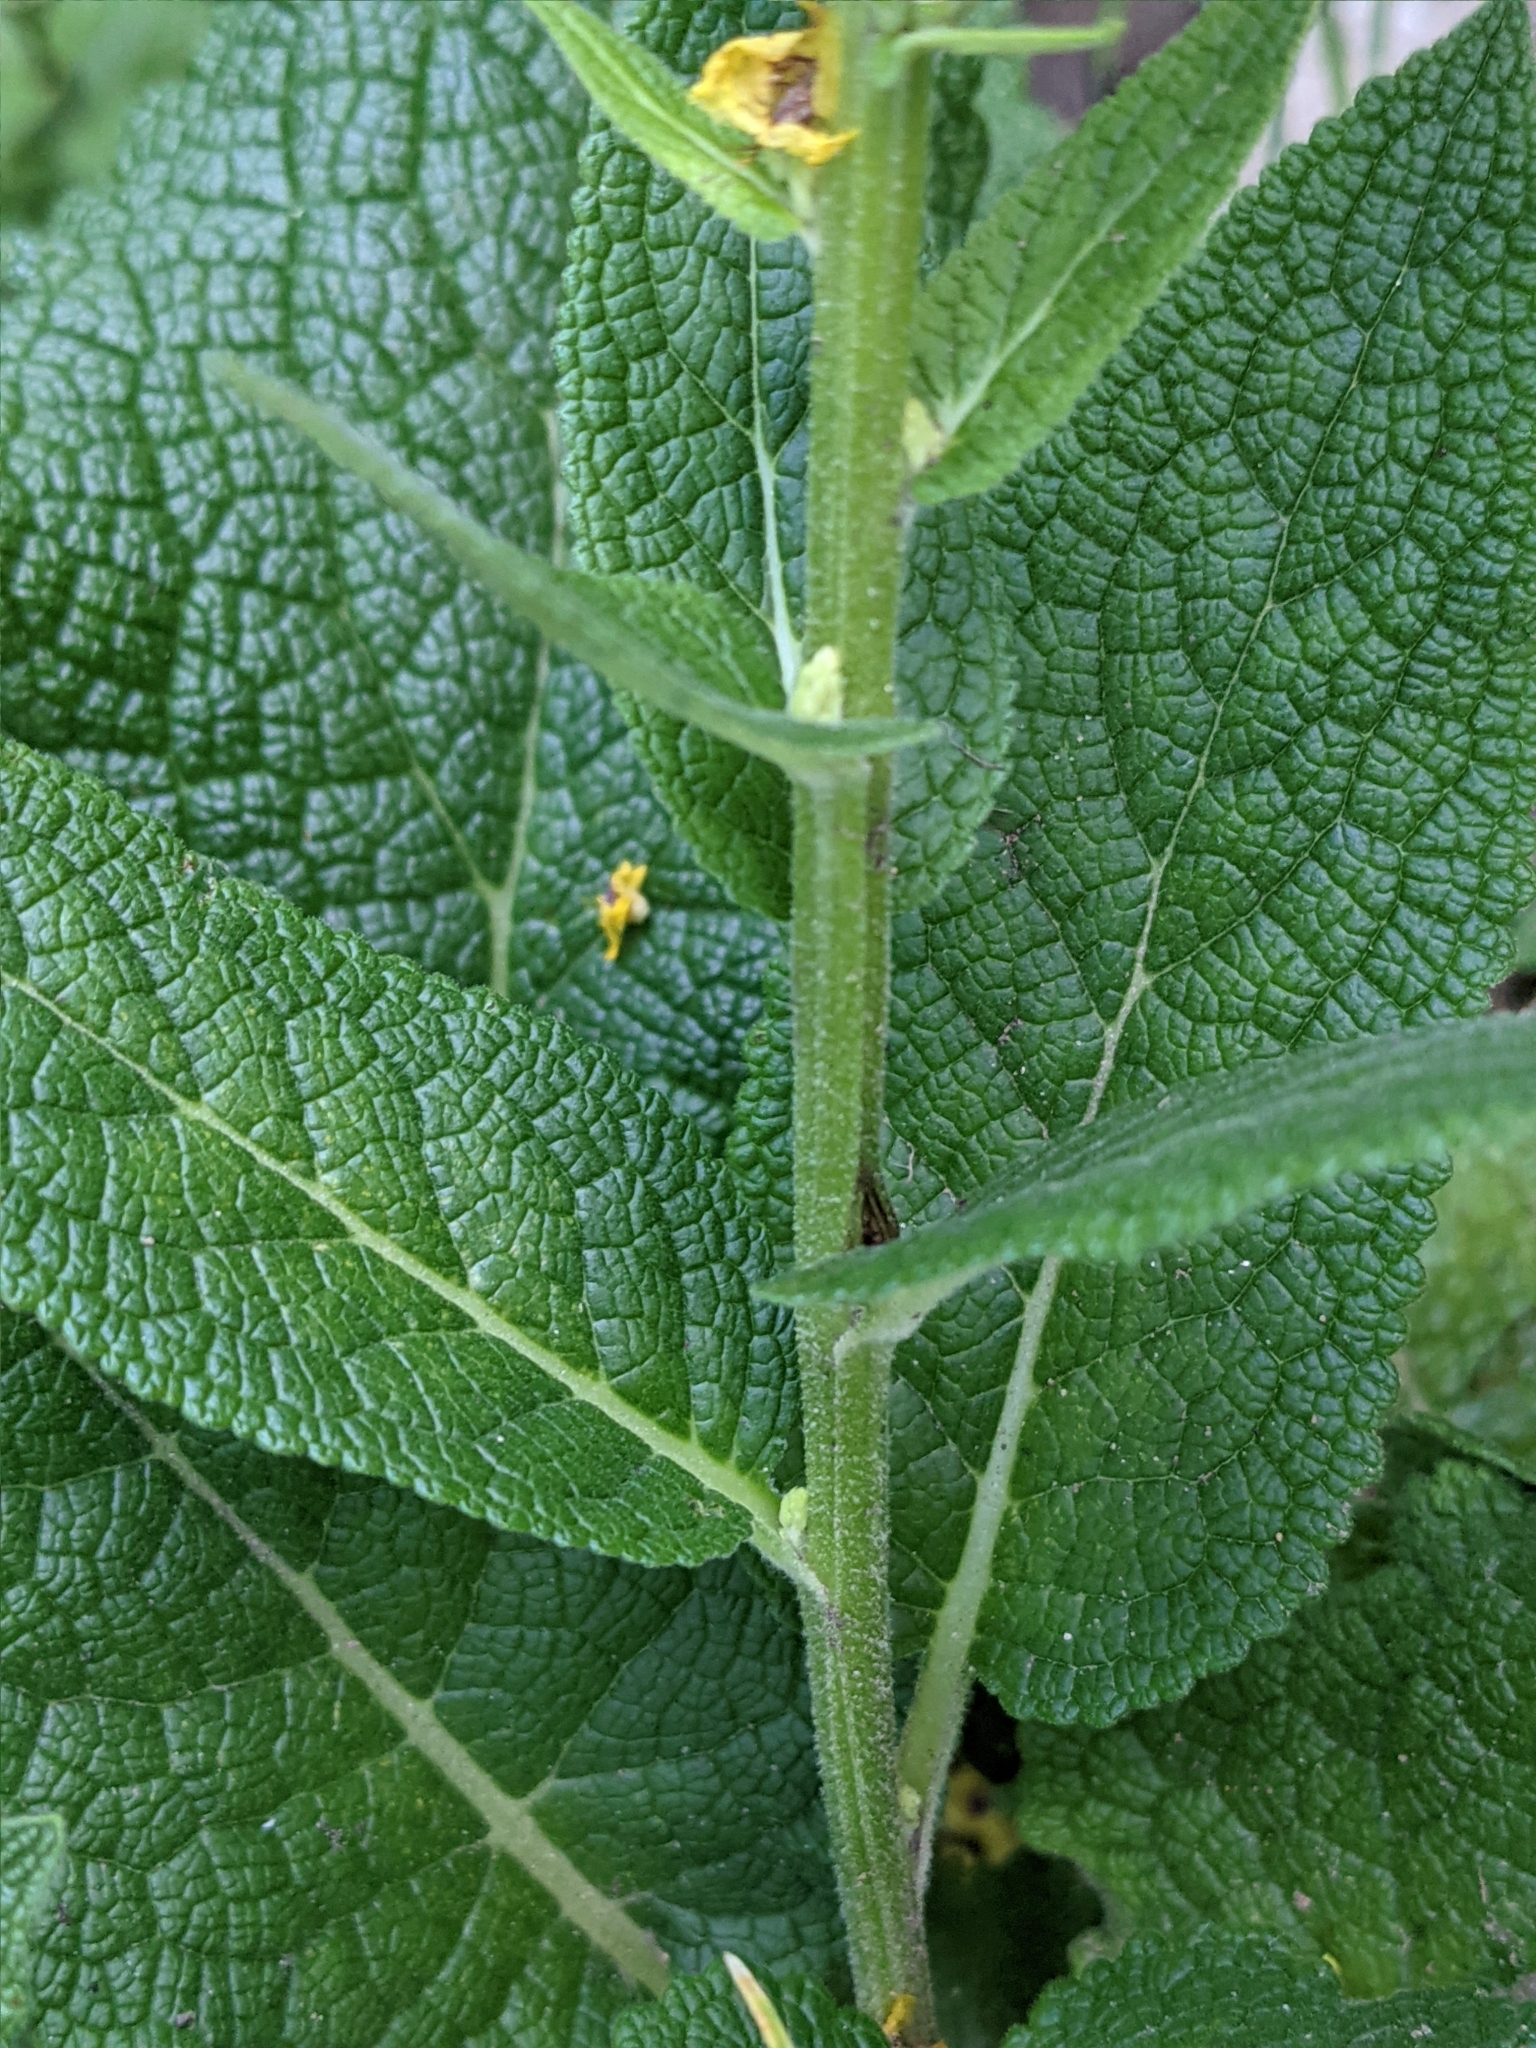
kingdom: Plantae
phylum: Tracheophyta
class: Magnoliopsida
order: Lamiales
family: Scrophulariaceae
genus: Verbascum
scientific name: Verbascum nigrum
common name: Dark mullein
